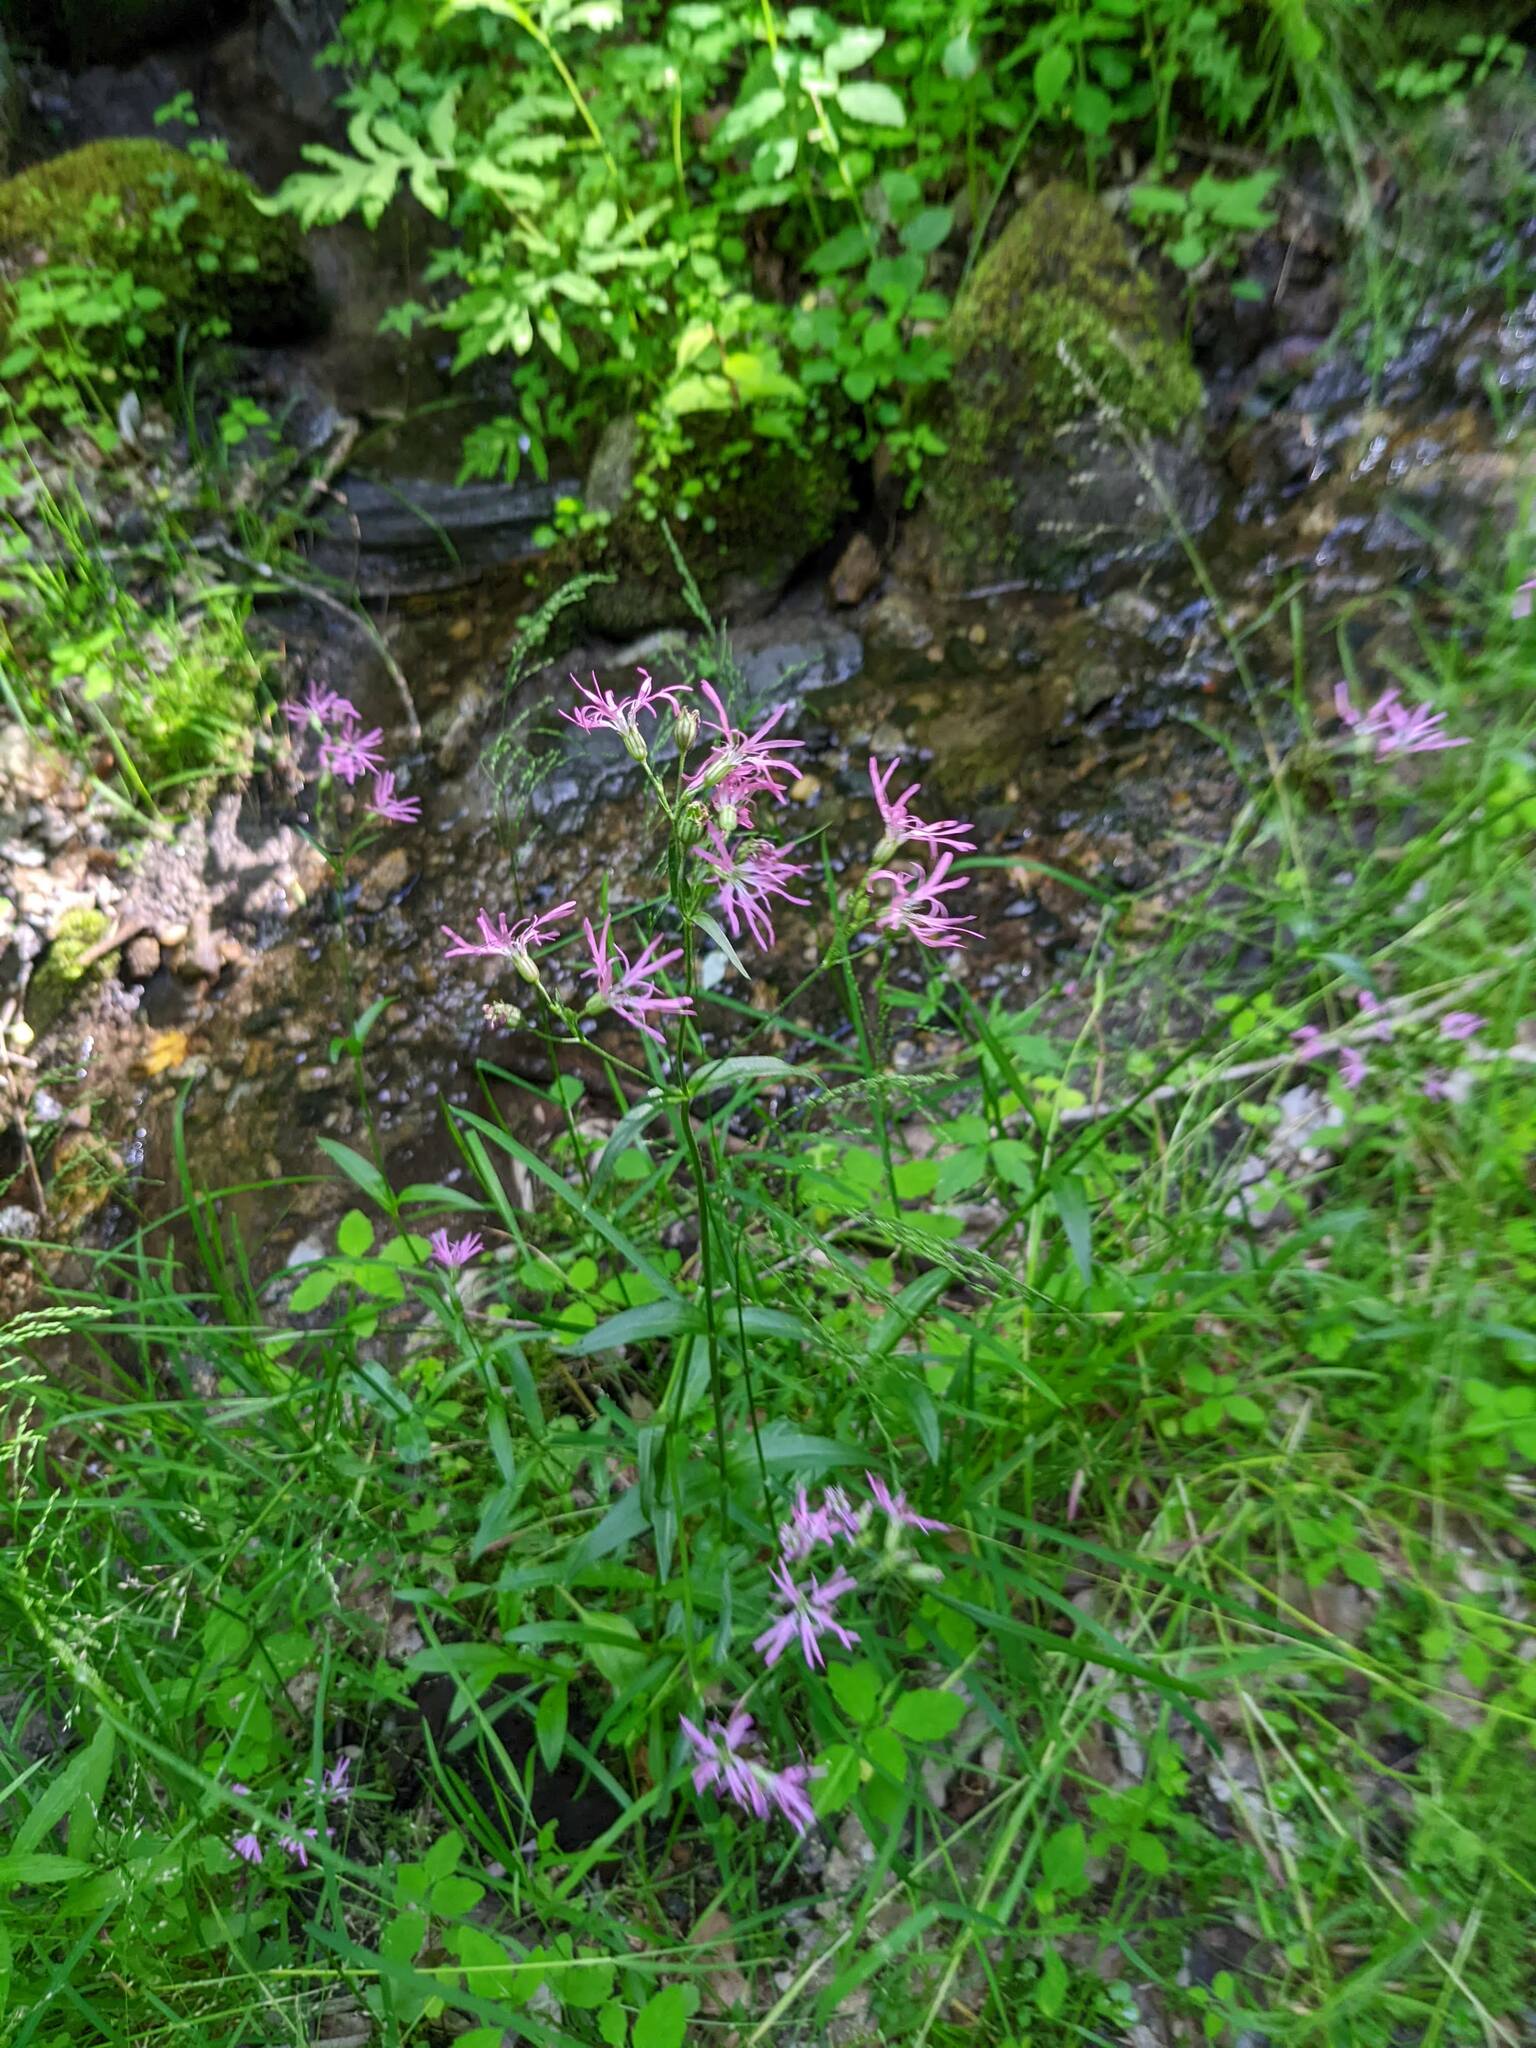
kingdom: Plantae
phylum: Tracheophyta
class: Magnoliopsida
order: Caryophyllales
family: Caryophyllaceae
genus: Silene
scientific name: Silene flos-cuculi
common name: Ragged-robin
